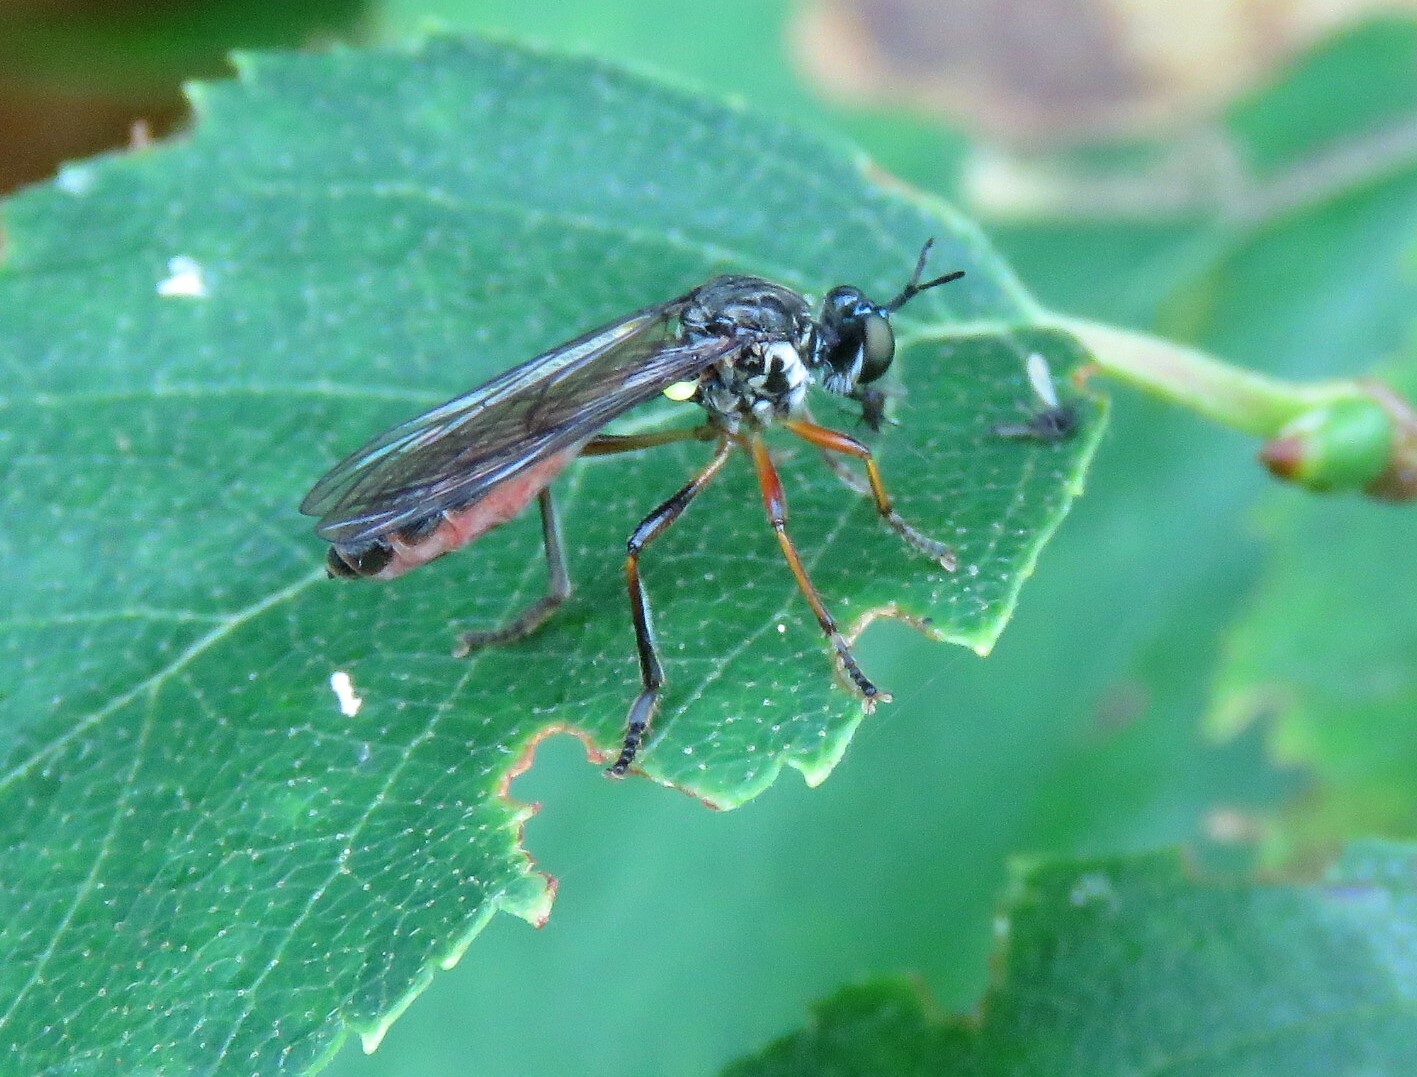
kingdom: Animalia
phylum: Arthropoda
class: Insecta
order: Diptera
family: Asilidae
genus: Dioctria
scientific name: Dioctria hyalipennis
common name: Stripe-legged robberfly
